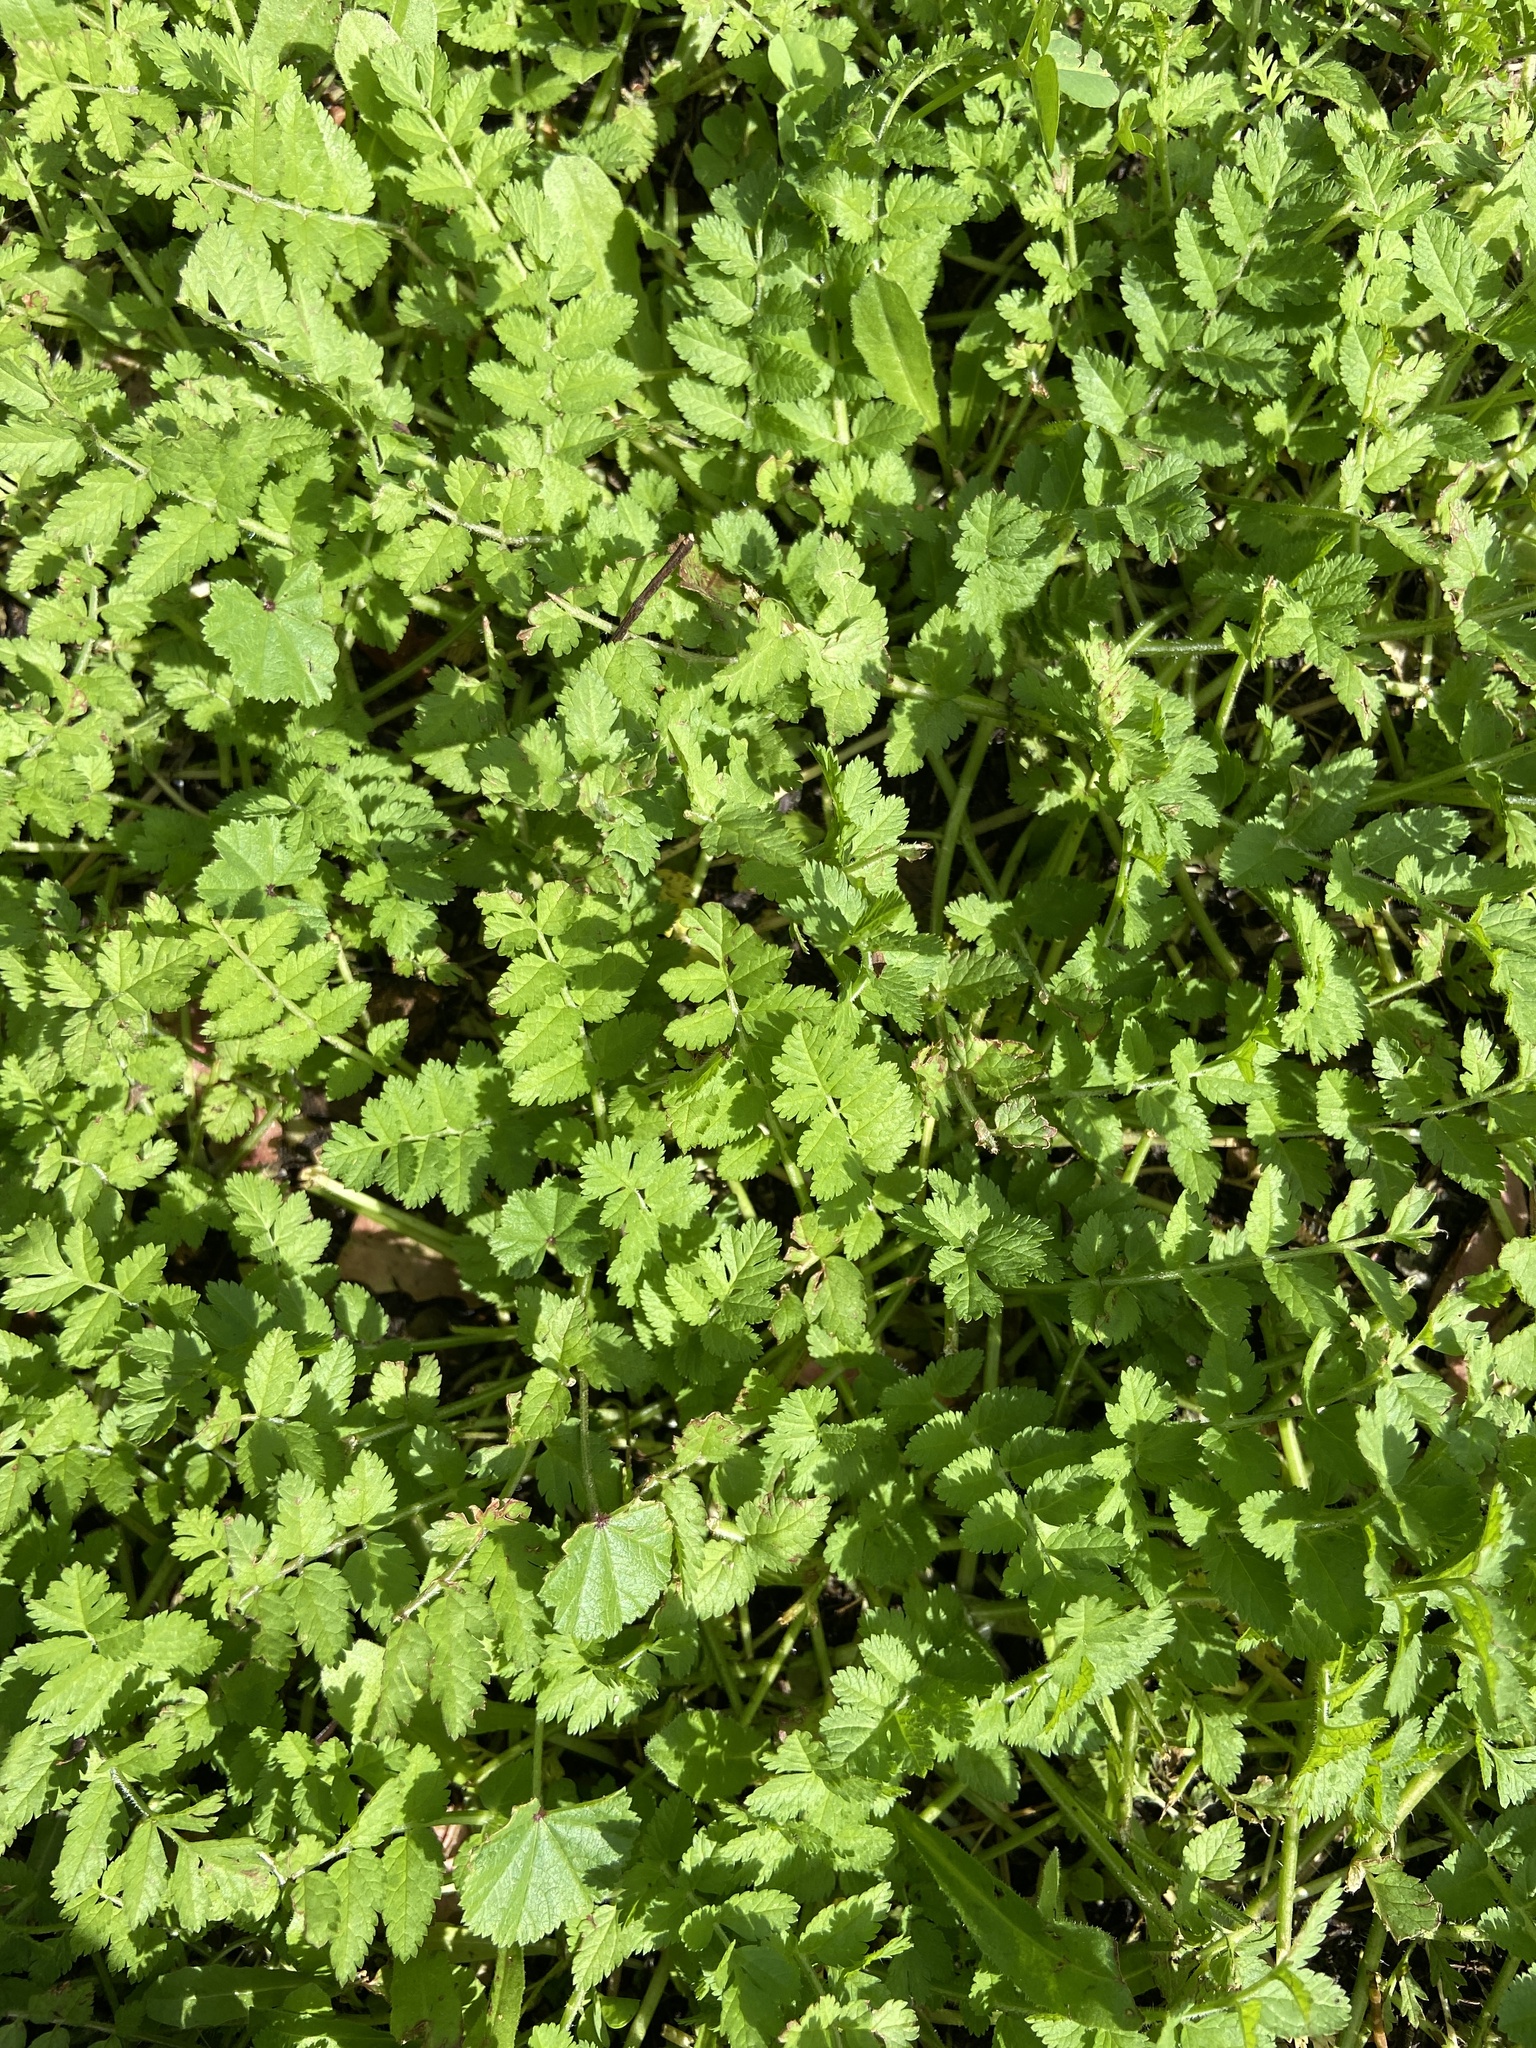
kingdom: Plantae
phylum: Tracheophyta
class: Magnoliopsida
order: Geraniales
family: Geraniaceae
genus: Erodium
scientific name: Erodium moschatum
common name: Musk stork's-bill
